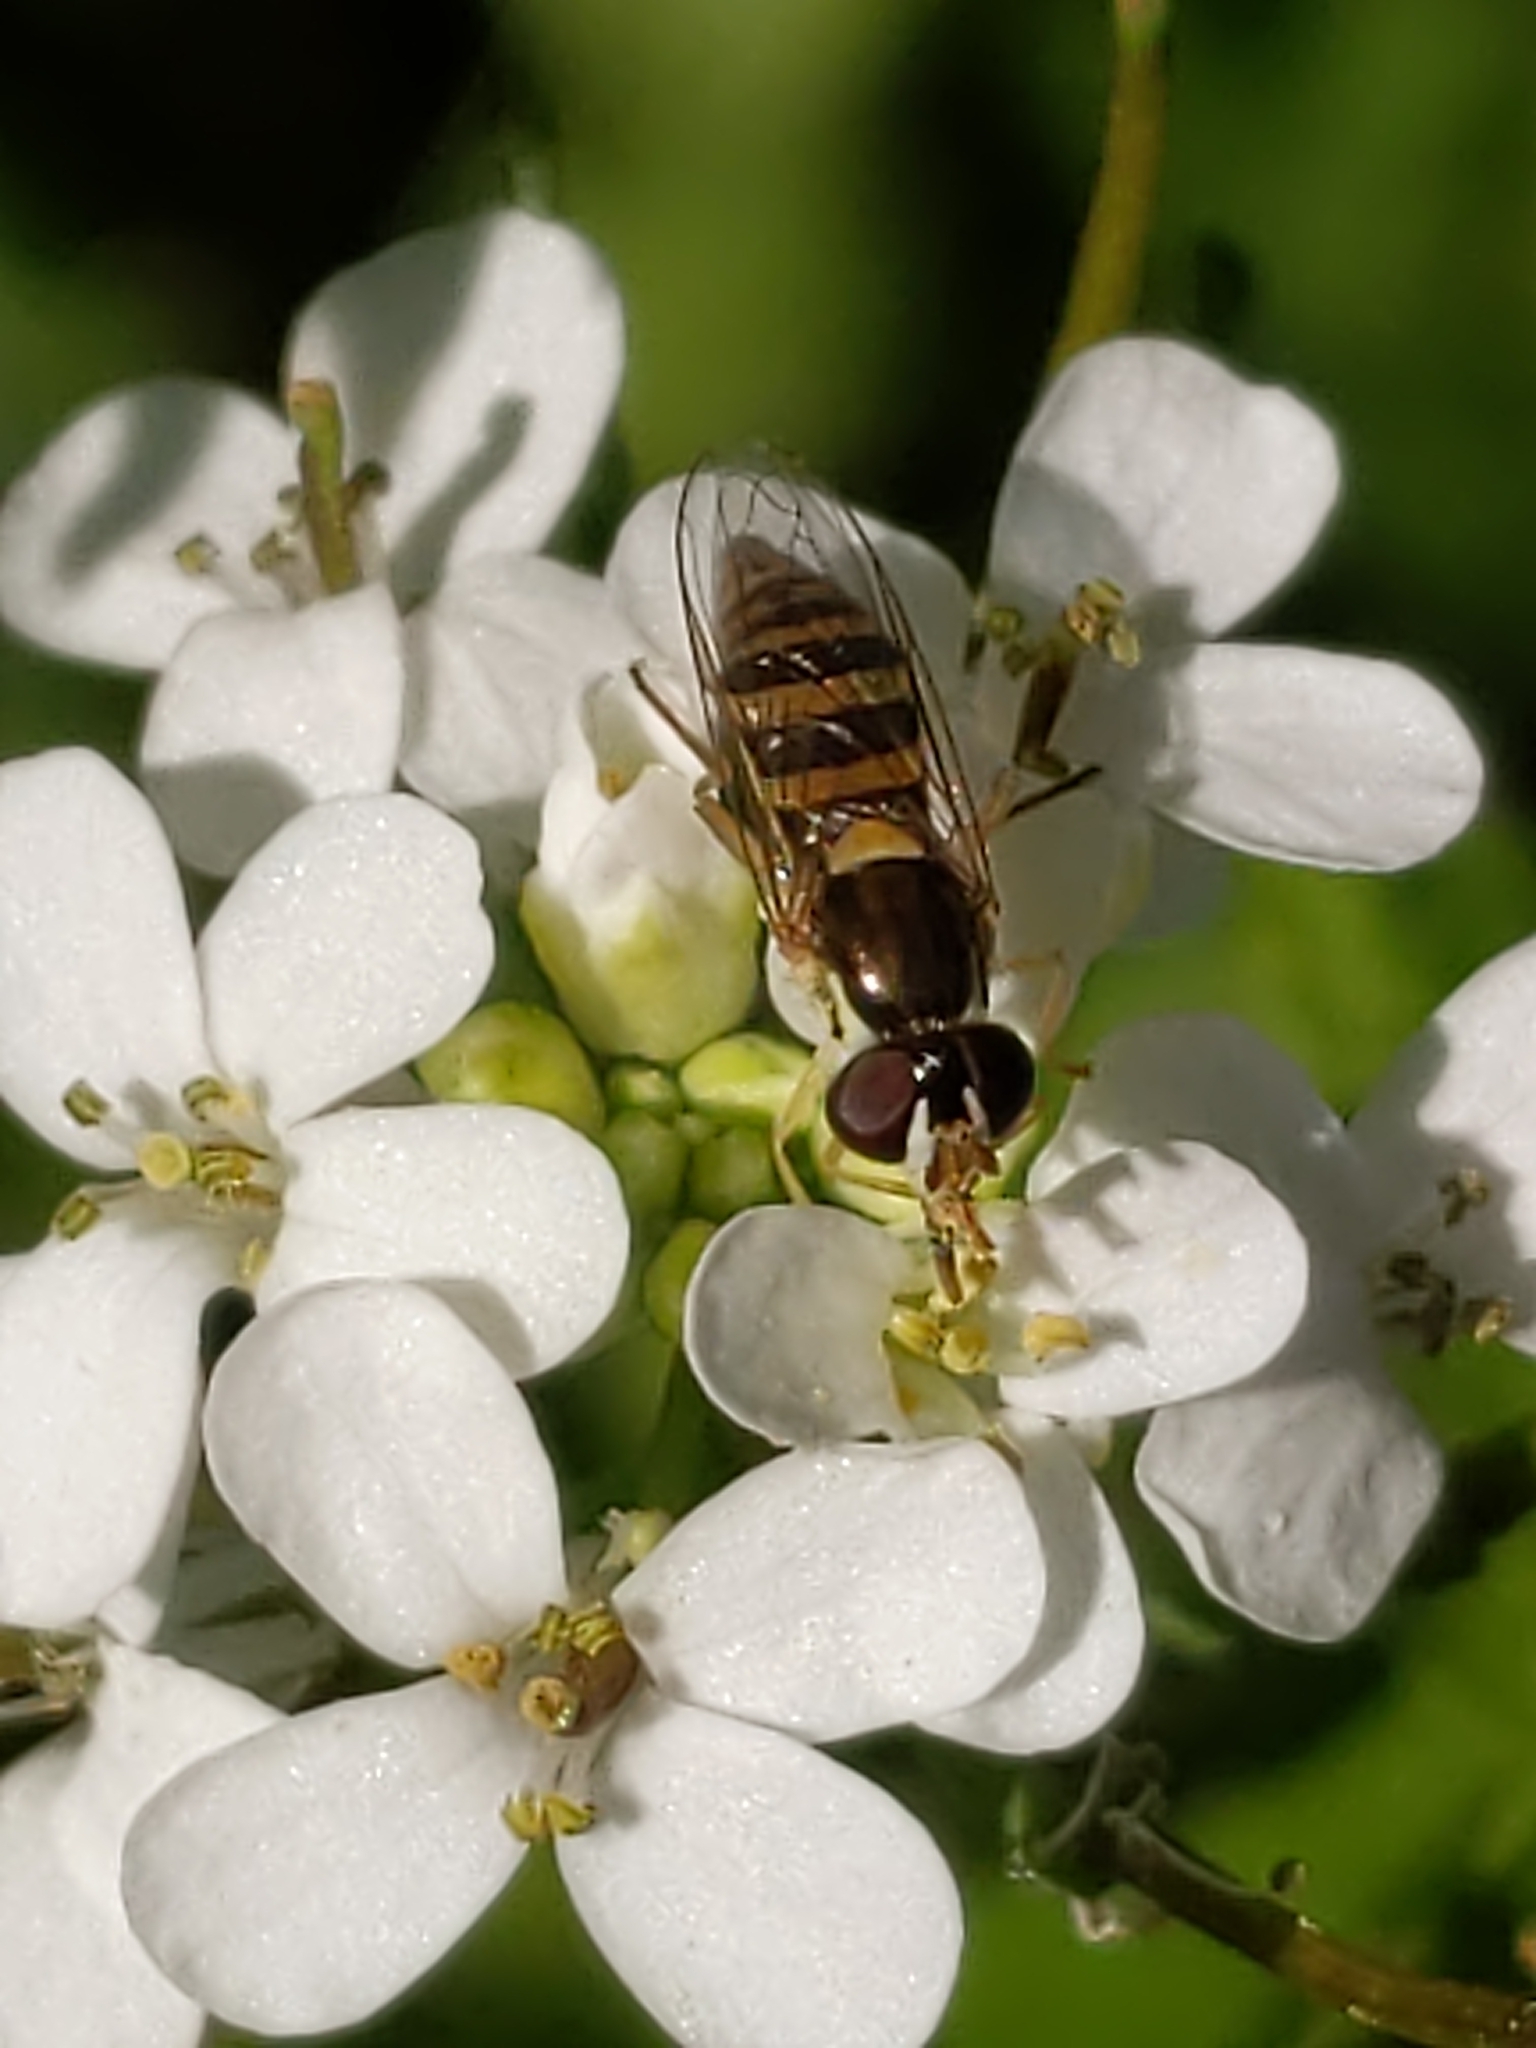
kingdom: Animalia
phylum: Arthropoda
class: Insecta
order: Diptera
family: Syrphidae
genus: Sphaerophoria
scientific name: Sphaerophoria contigua
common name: Tufted globetail
